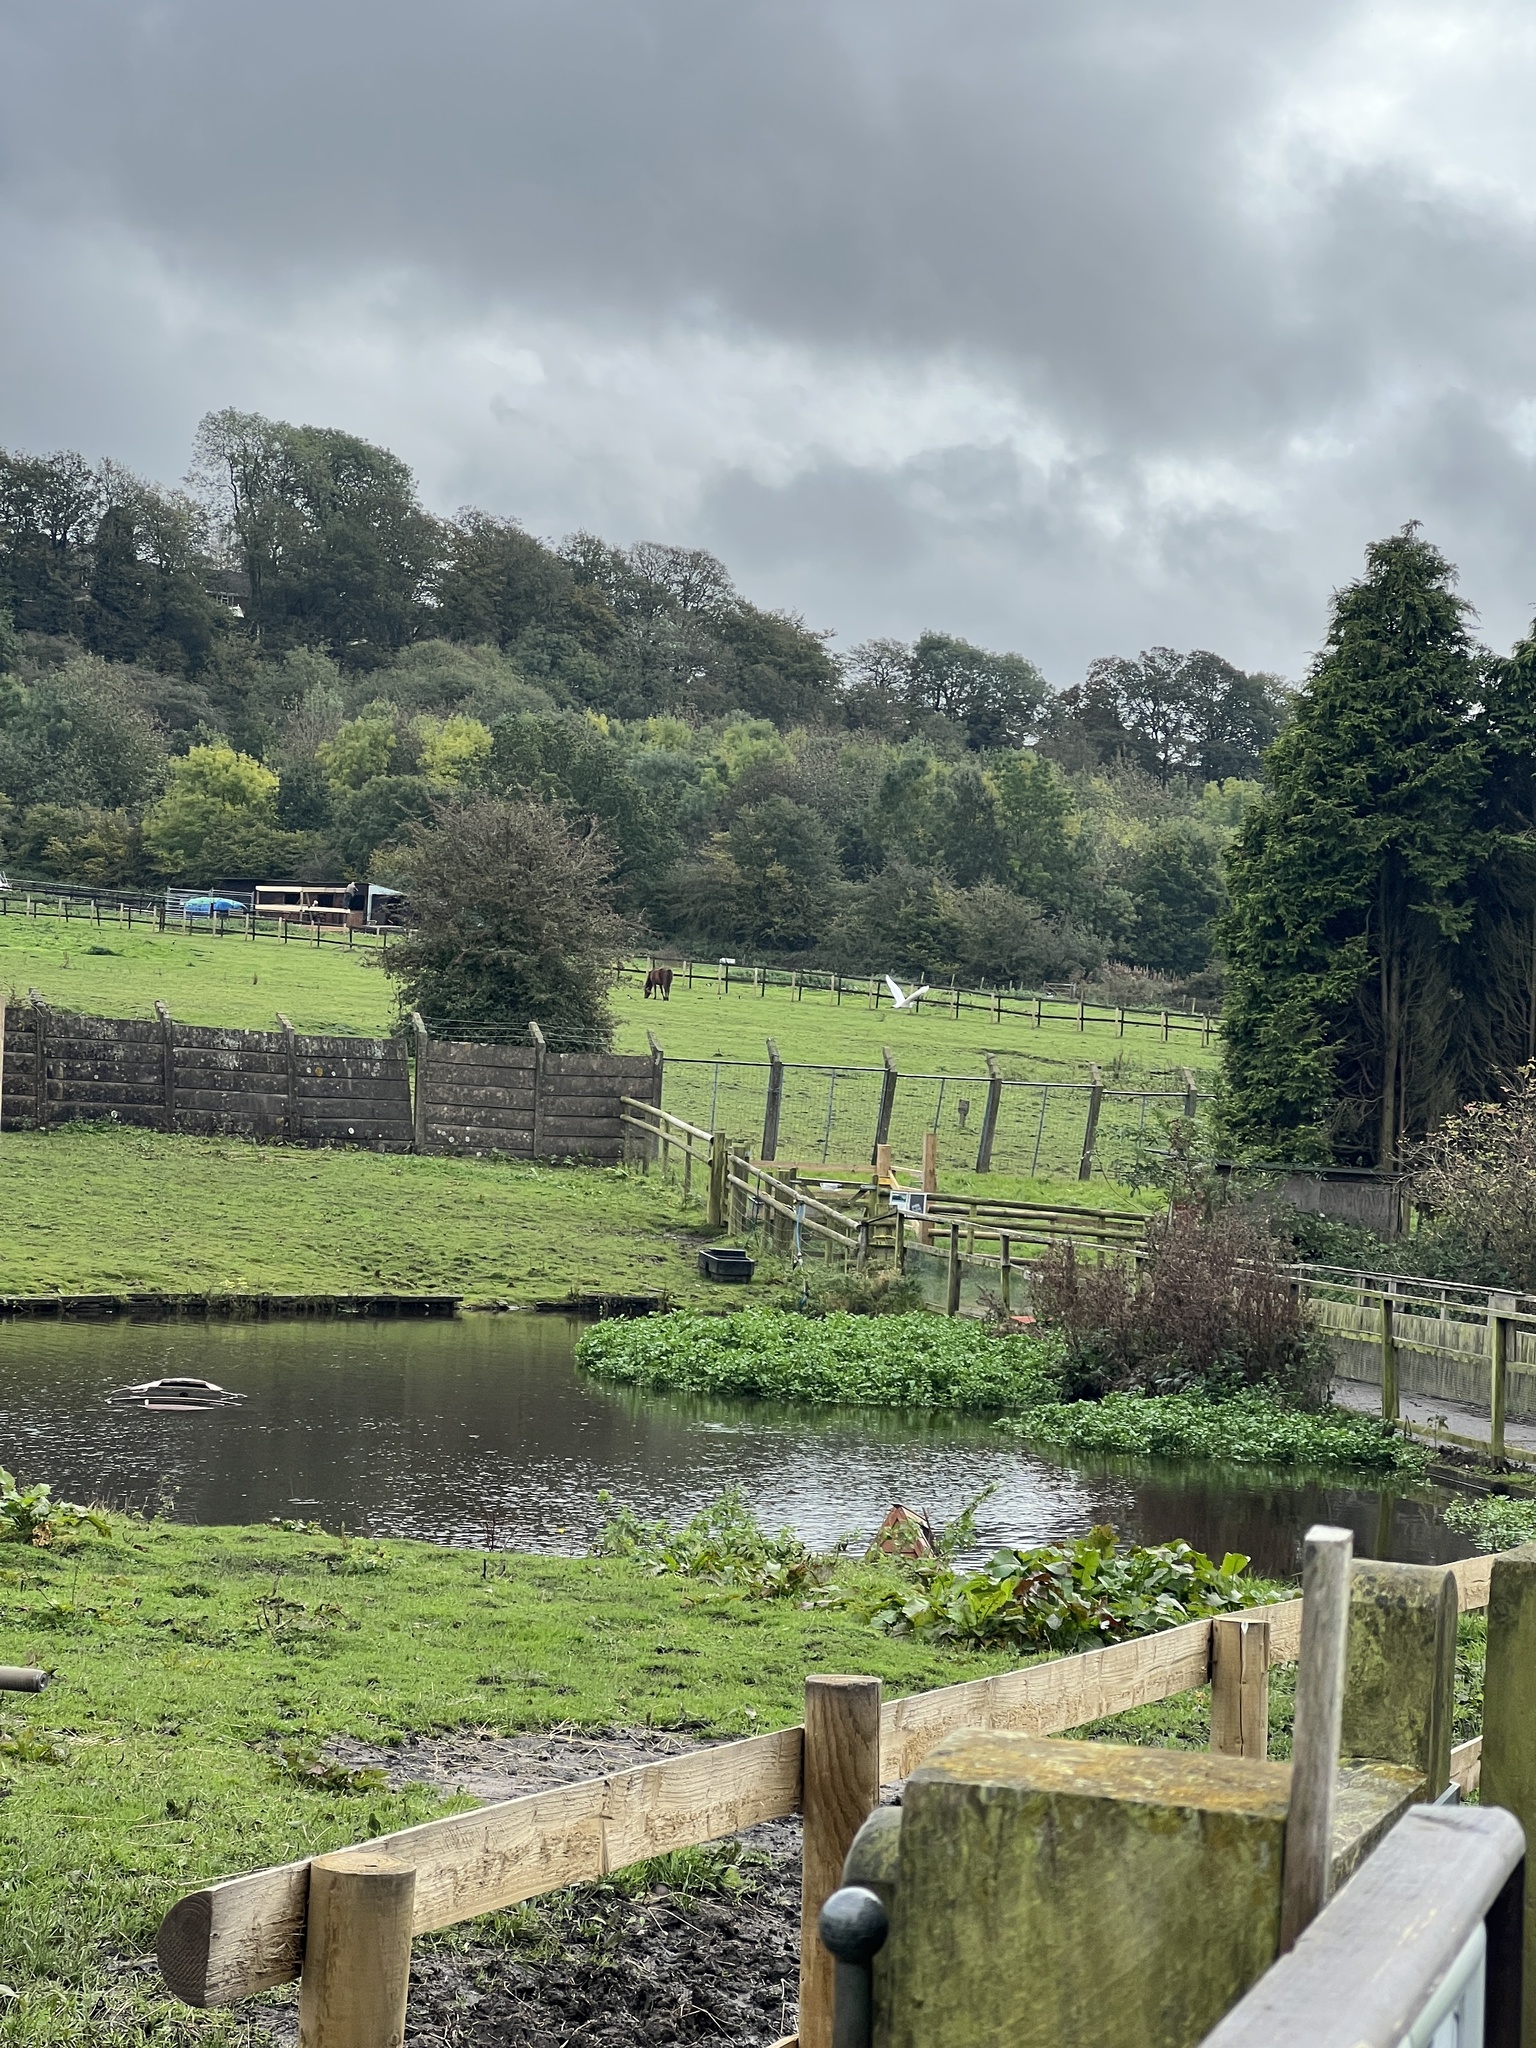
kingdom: Animalia
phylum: Chordata
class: Aves
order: Pelecaniformes
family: Ardeidae
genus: Egretta
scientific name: Egretta garzetta
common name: Little egret
